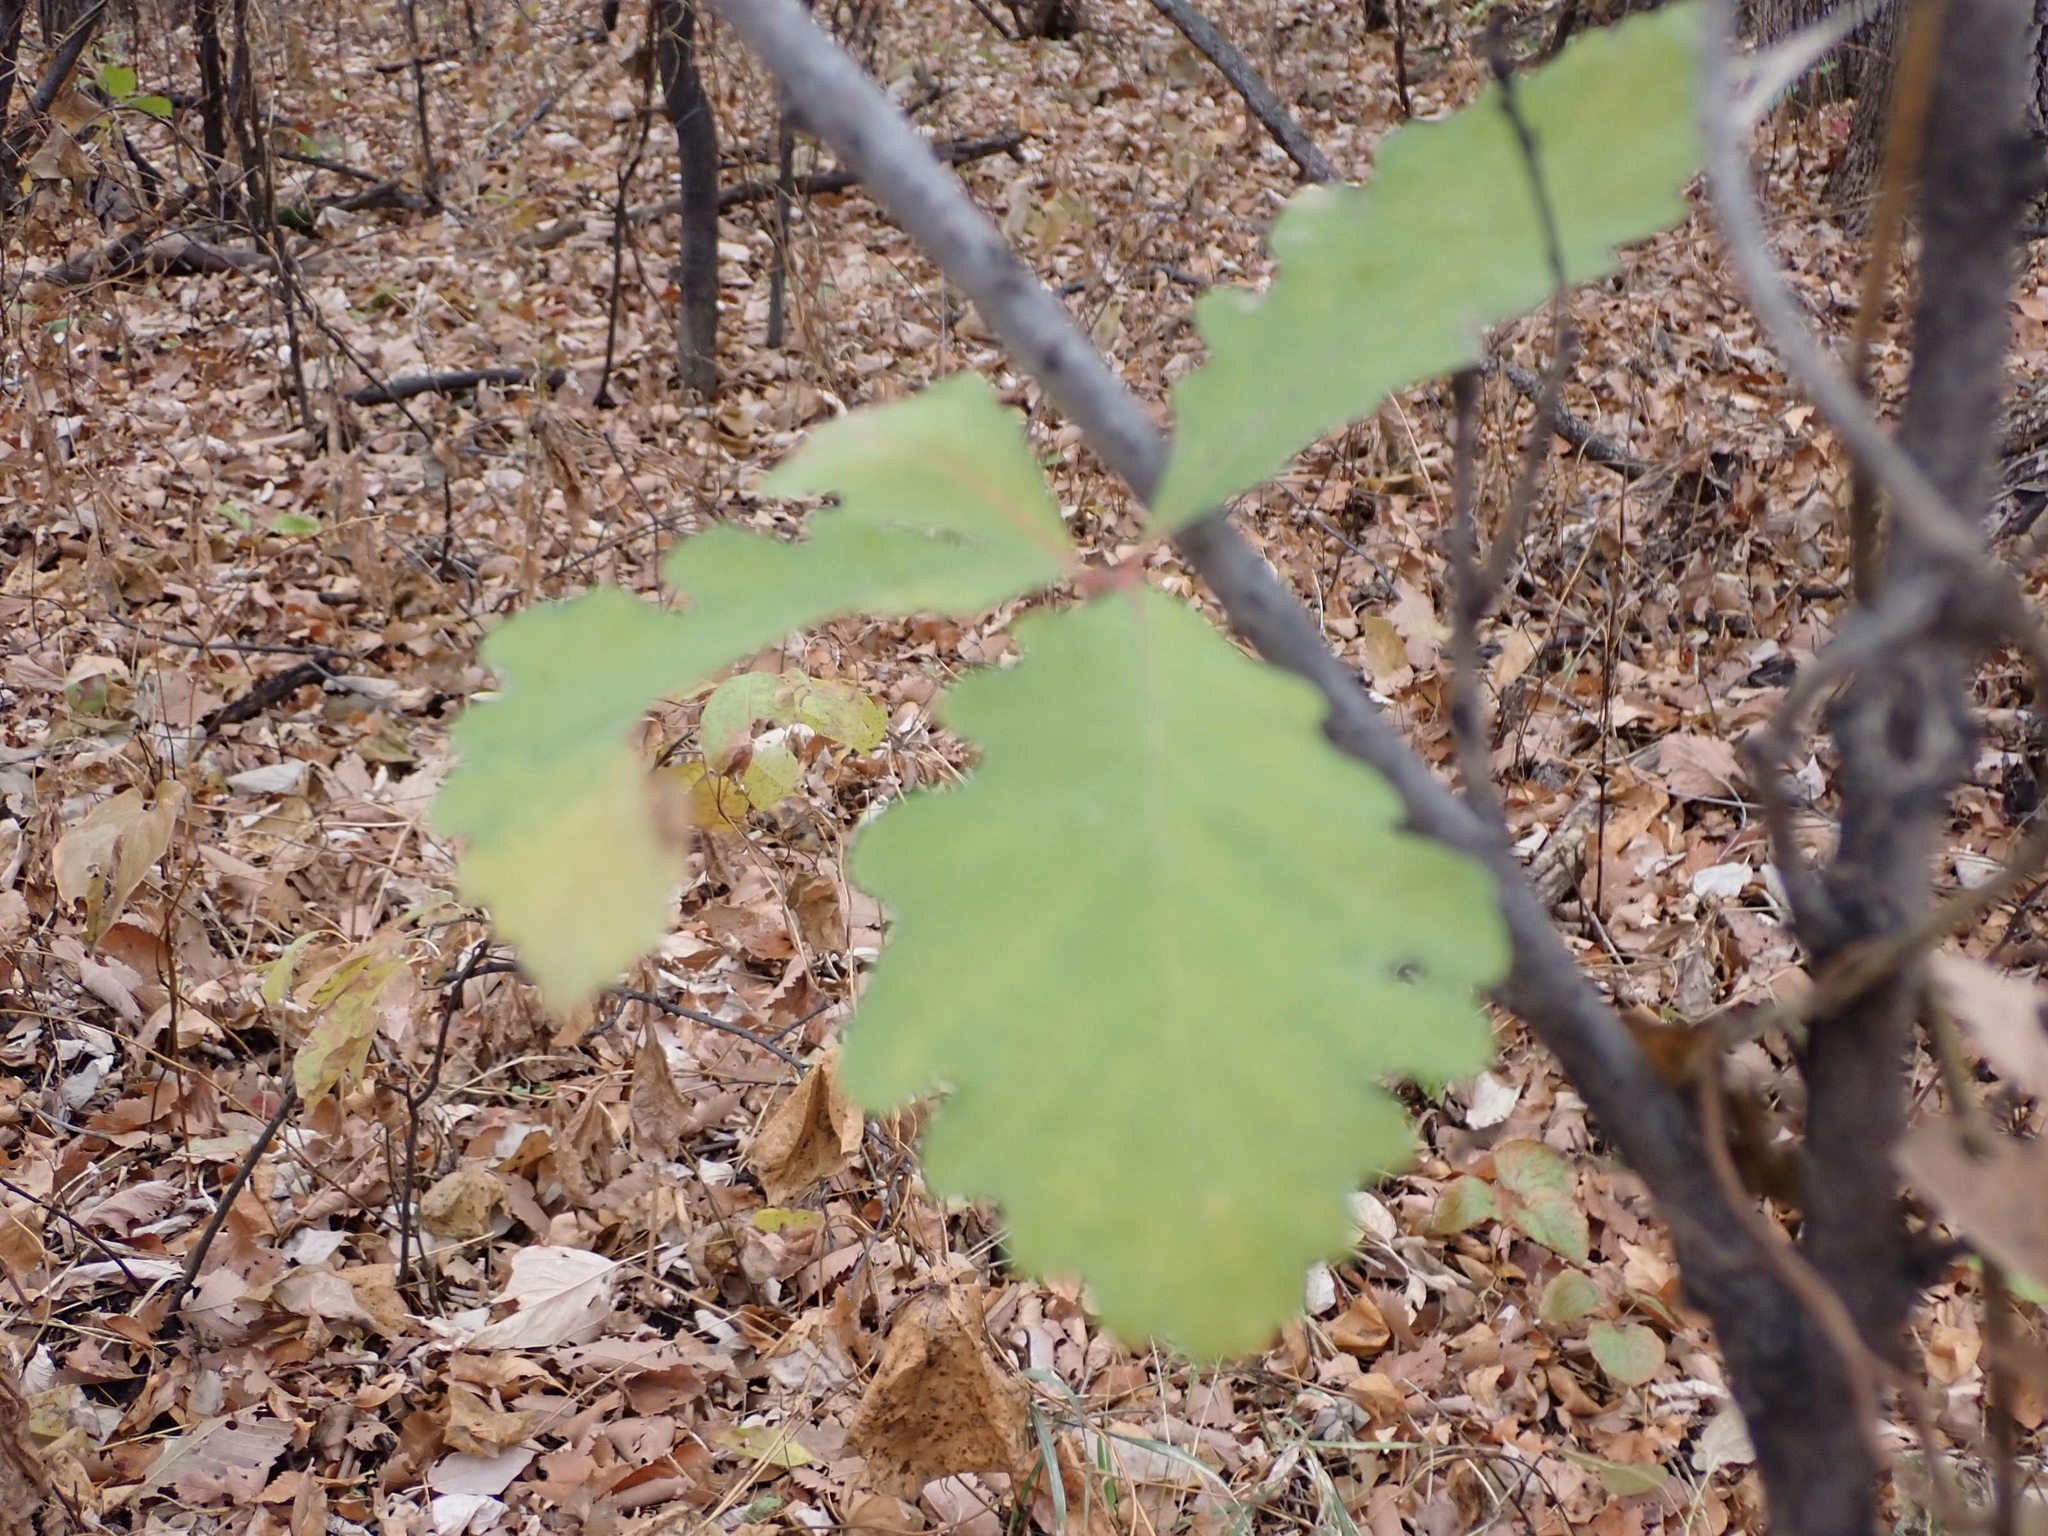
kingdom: Plantae
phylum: Tracheophyta
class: Magnoliopsida
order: Fagales
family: Fagaceae
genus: Quercus
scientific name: Quercus macrocarpa
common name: Bur oak
